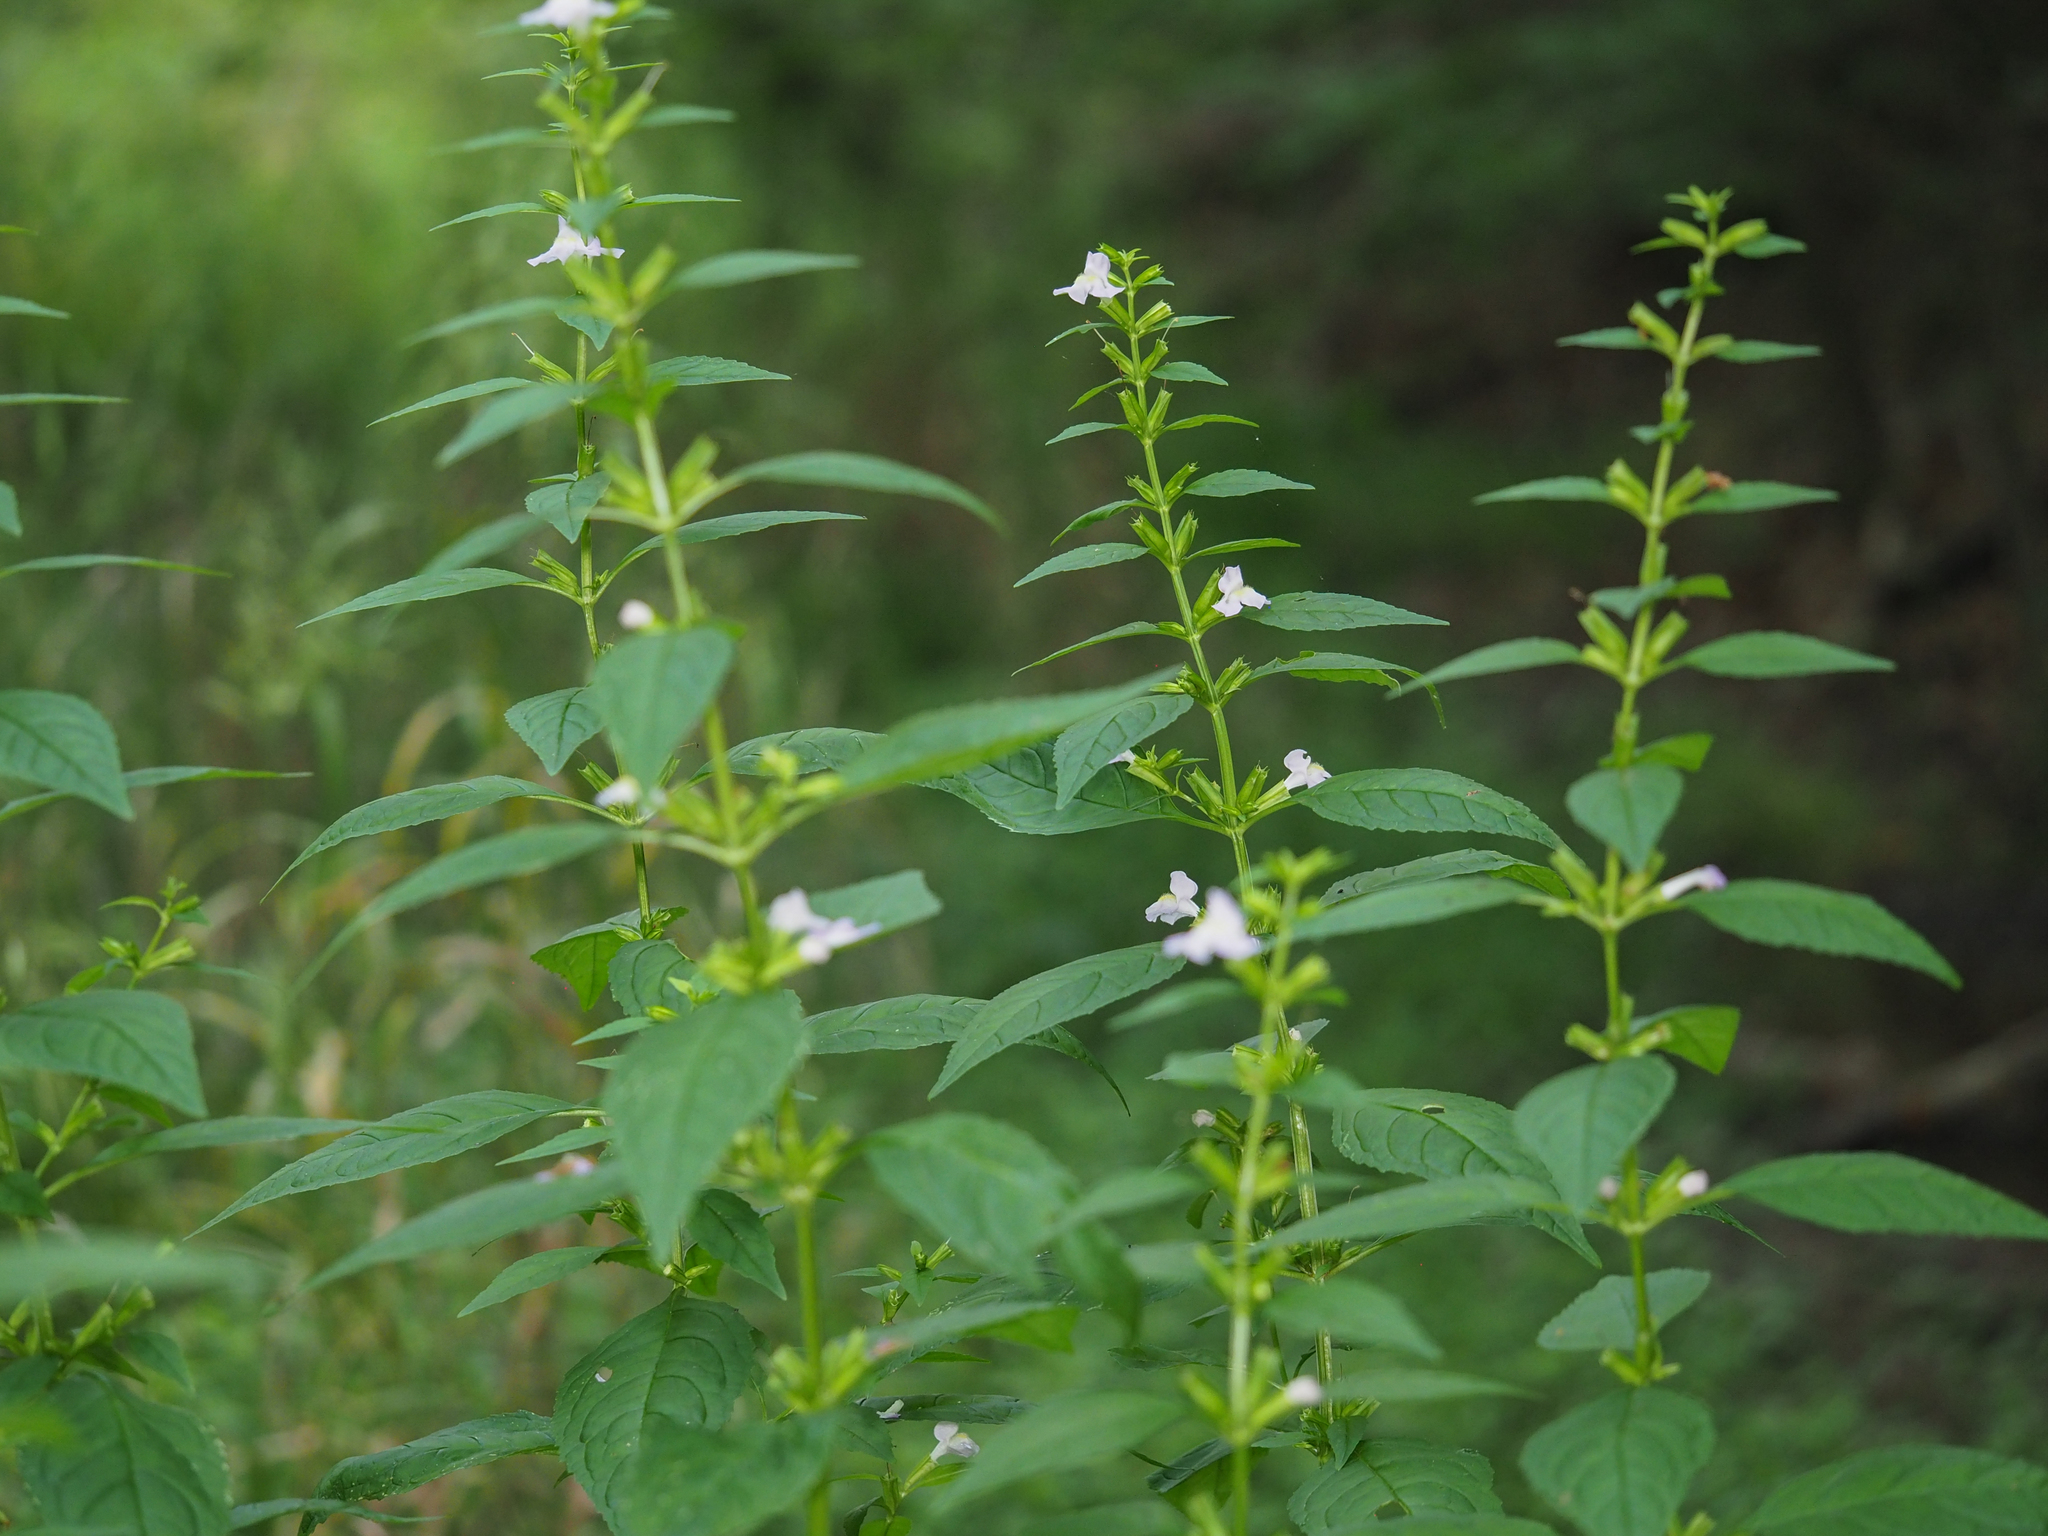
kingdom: Plantae
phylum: Tracheophyta
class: Magnoliopsida
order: Lamiales
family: Phrymaceae
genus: Mimulus
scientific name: Mimulus alatus
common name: Sharp-wing monkey-flower
